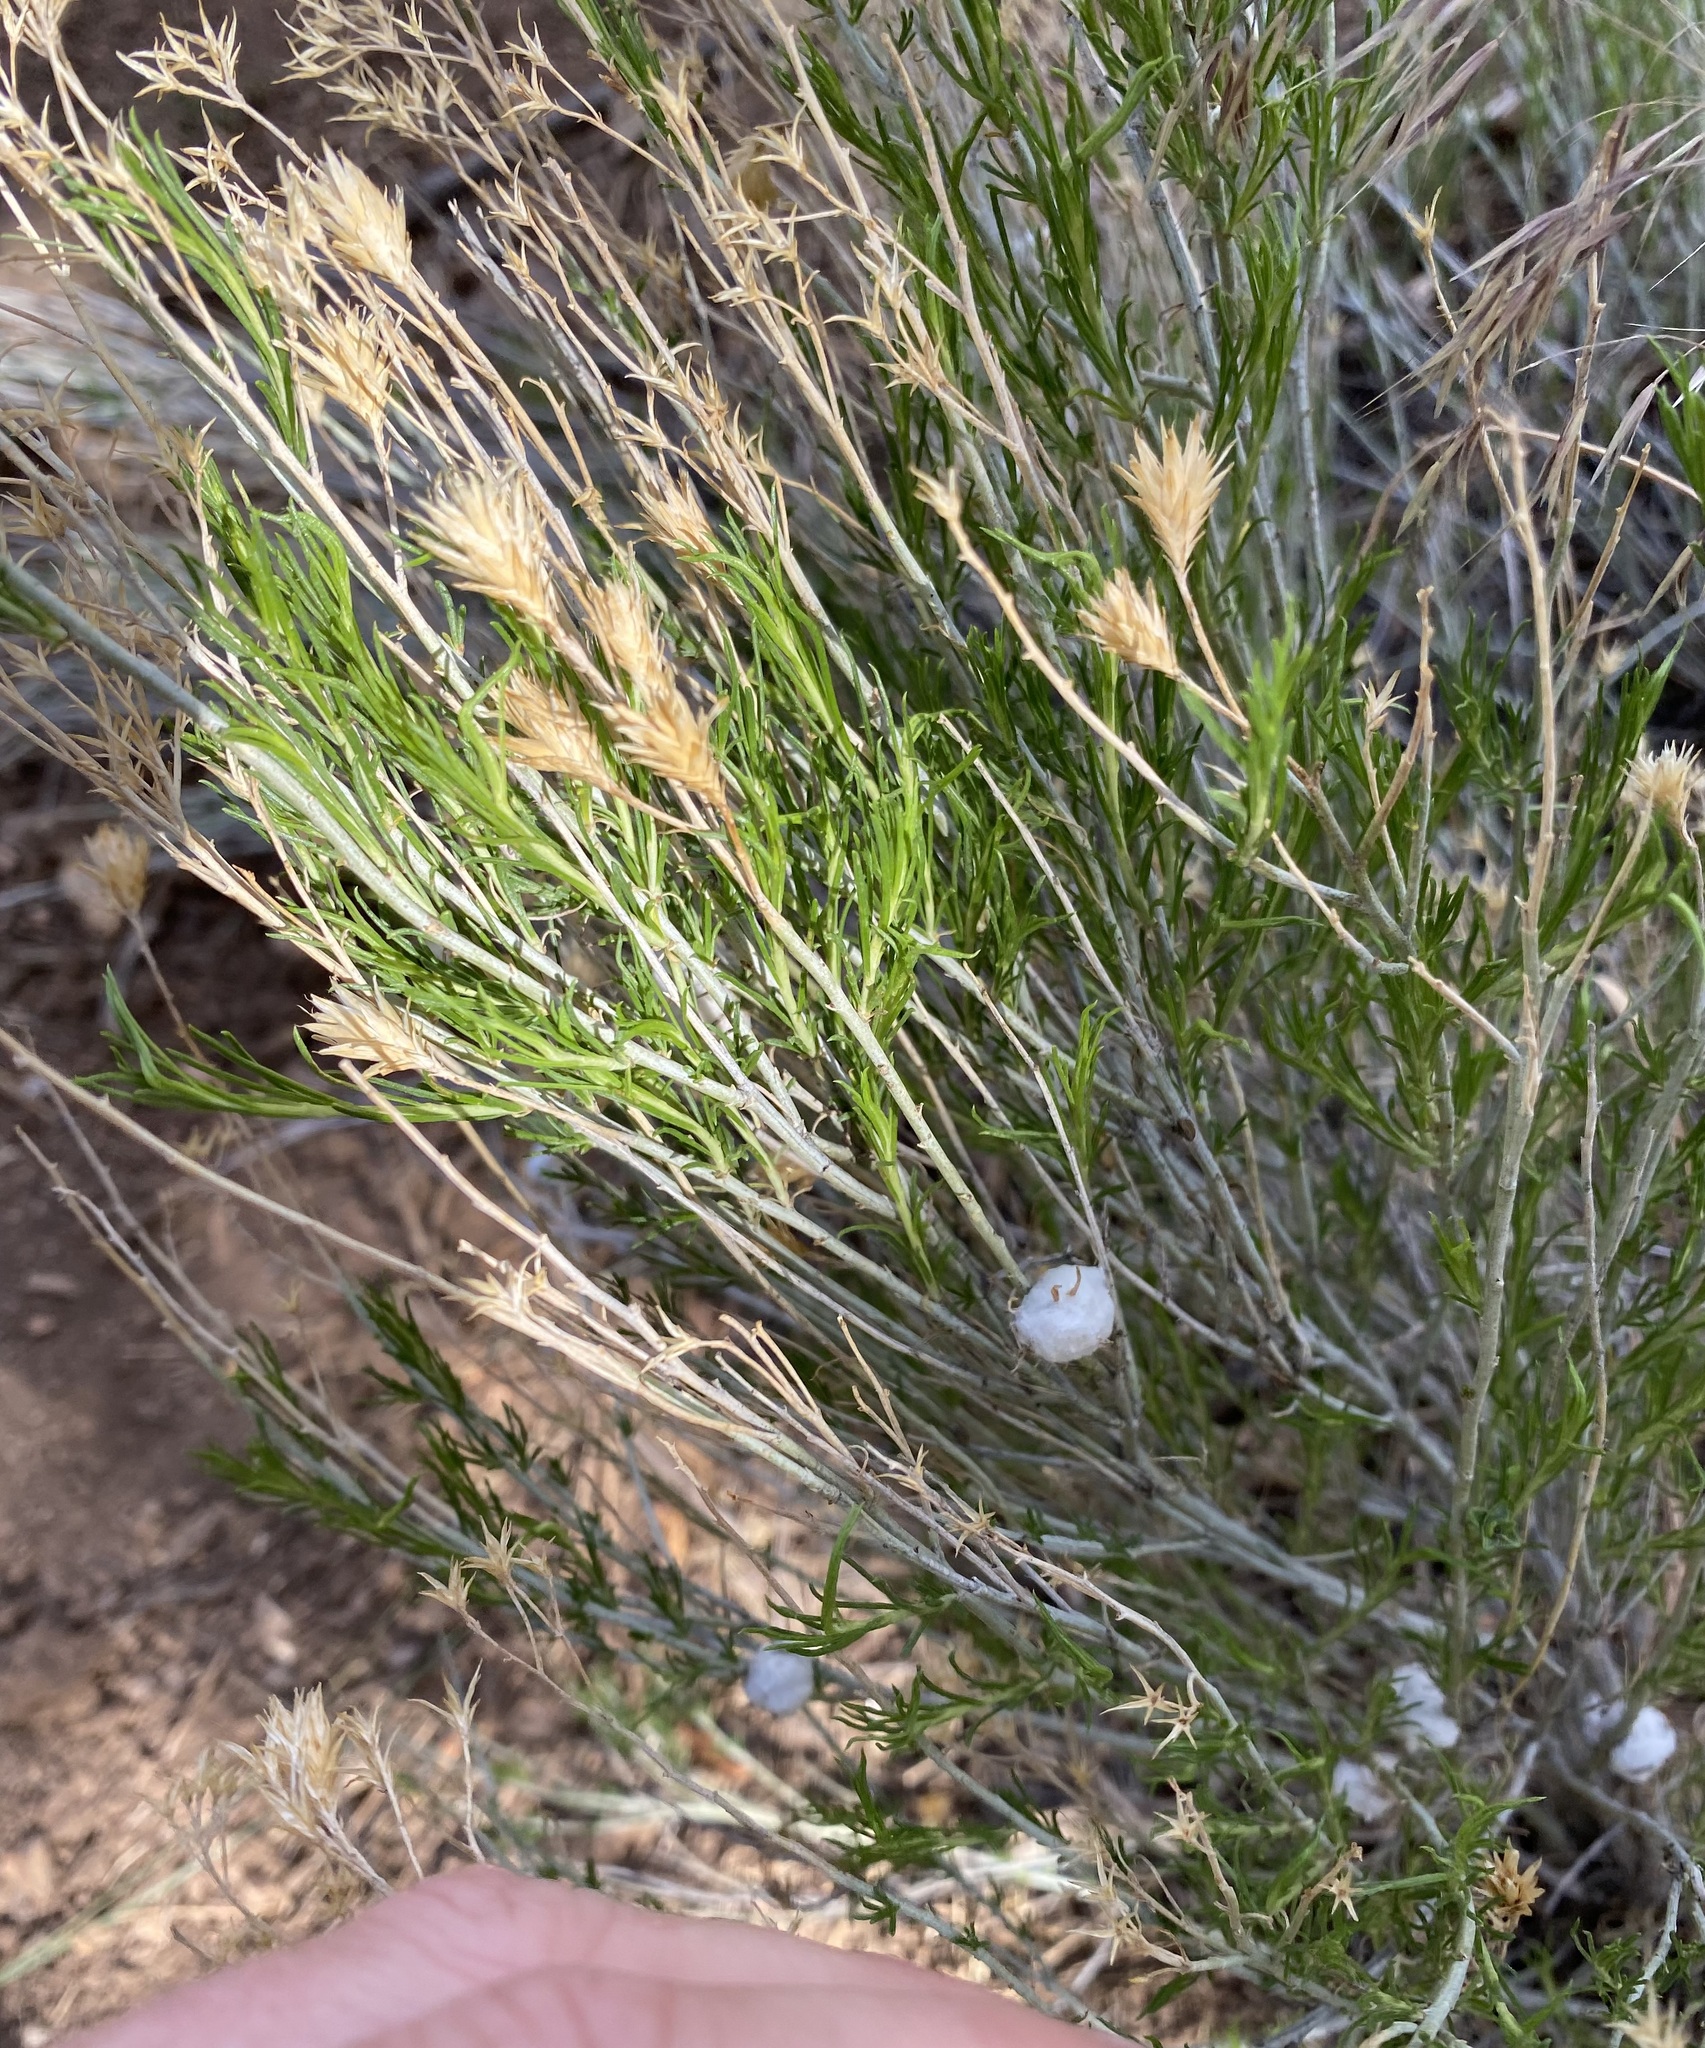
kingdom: Plantae
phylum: Tracheophyta
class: Magnoliopsida
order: Asterales
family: Asteraceae
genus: Ericameria
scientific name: Ericameria nauseosa
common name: Rubber rabbitbrush
